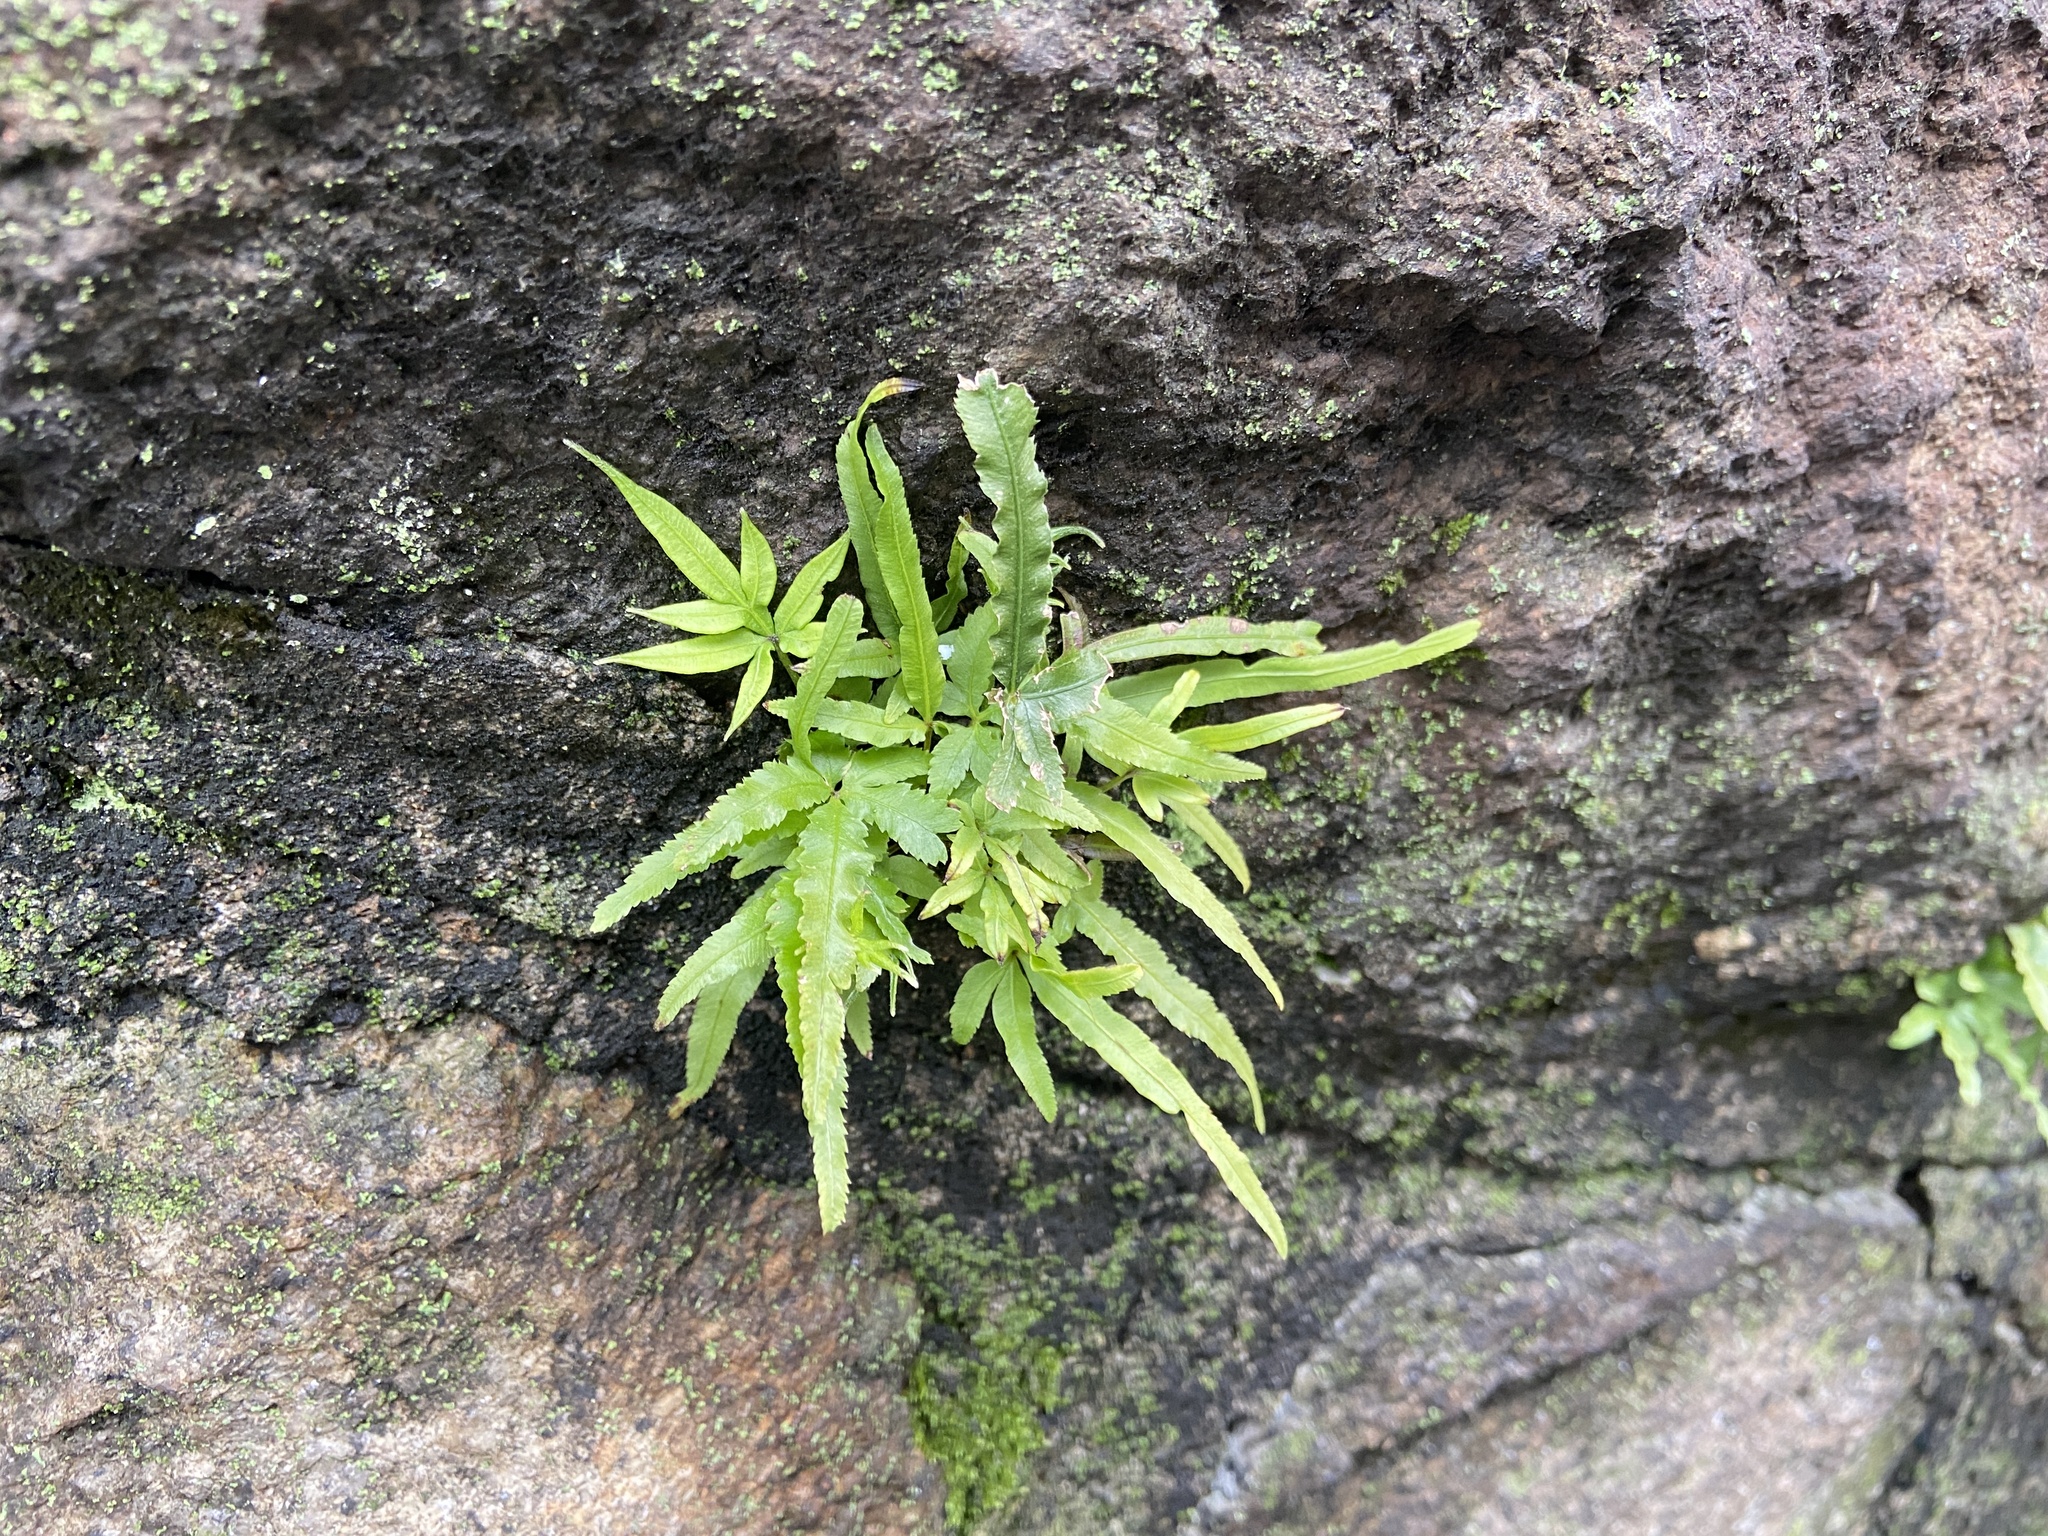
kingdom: Plantae
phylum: Tracheophyta
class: Polypodiopsida
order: Polypodiales
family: Pteridaceae
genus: Pteris
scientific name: Pteris multifida
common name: Spider brake
